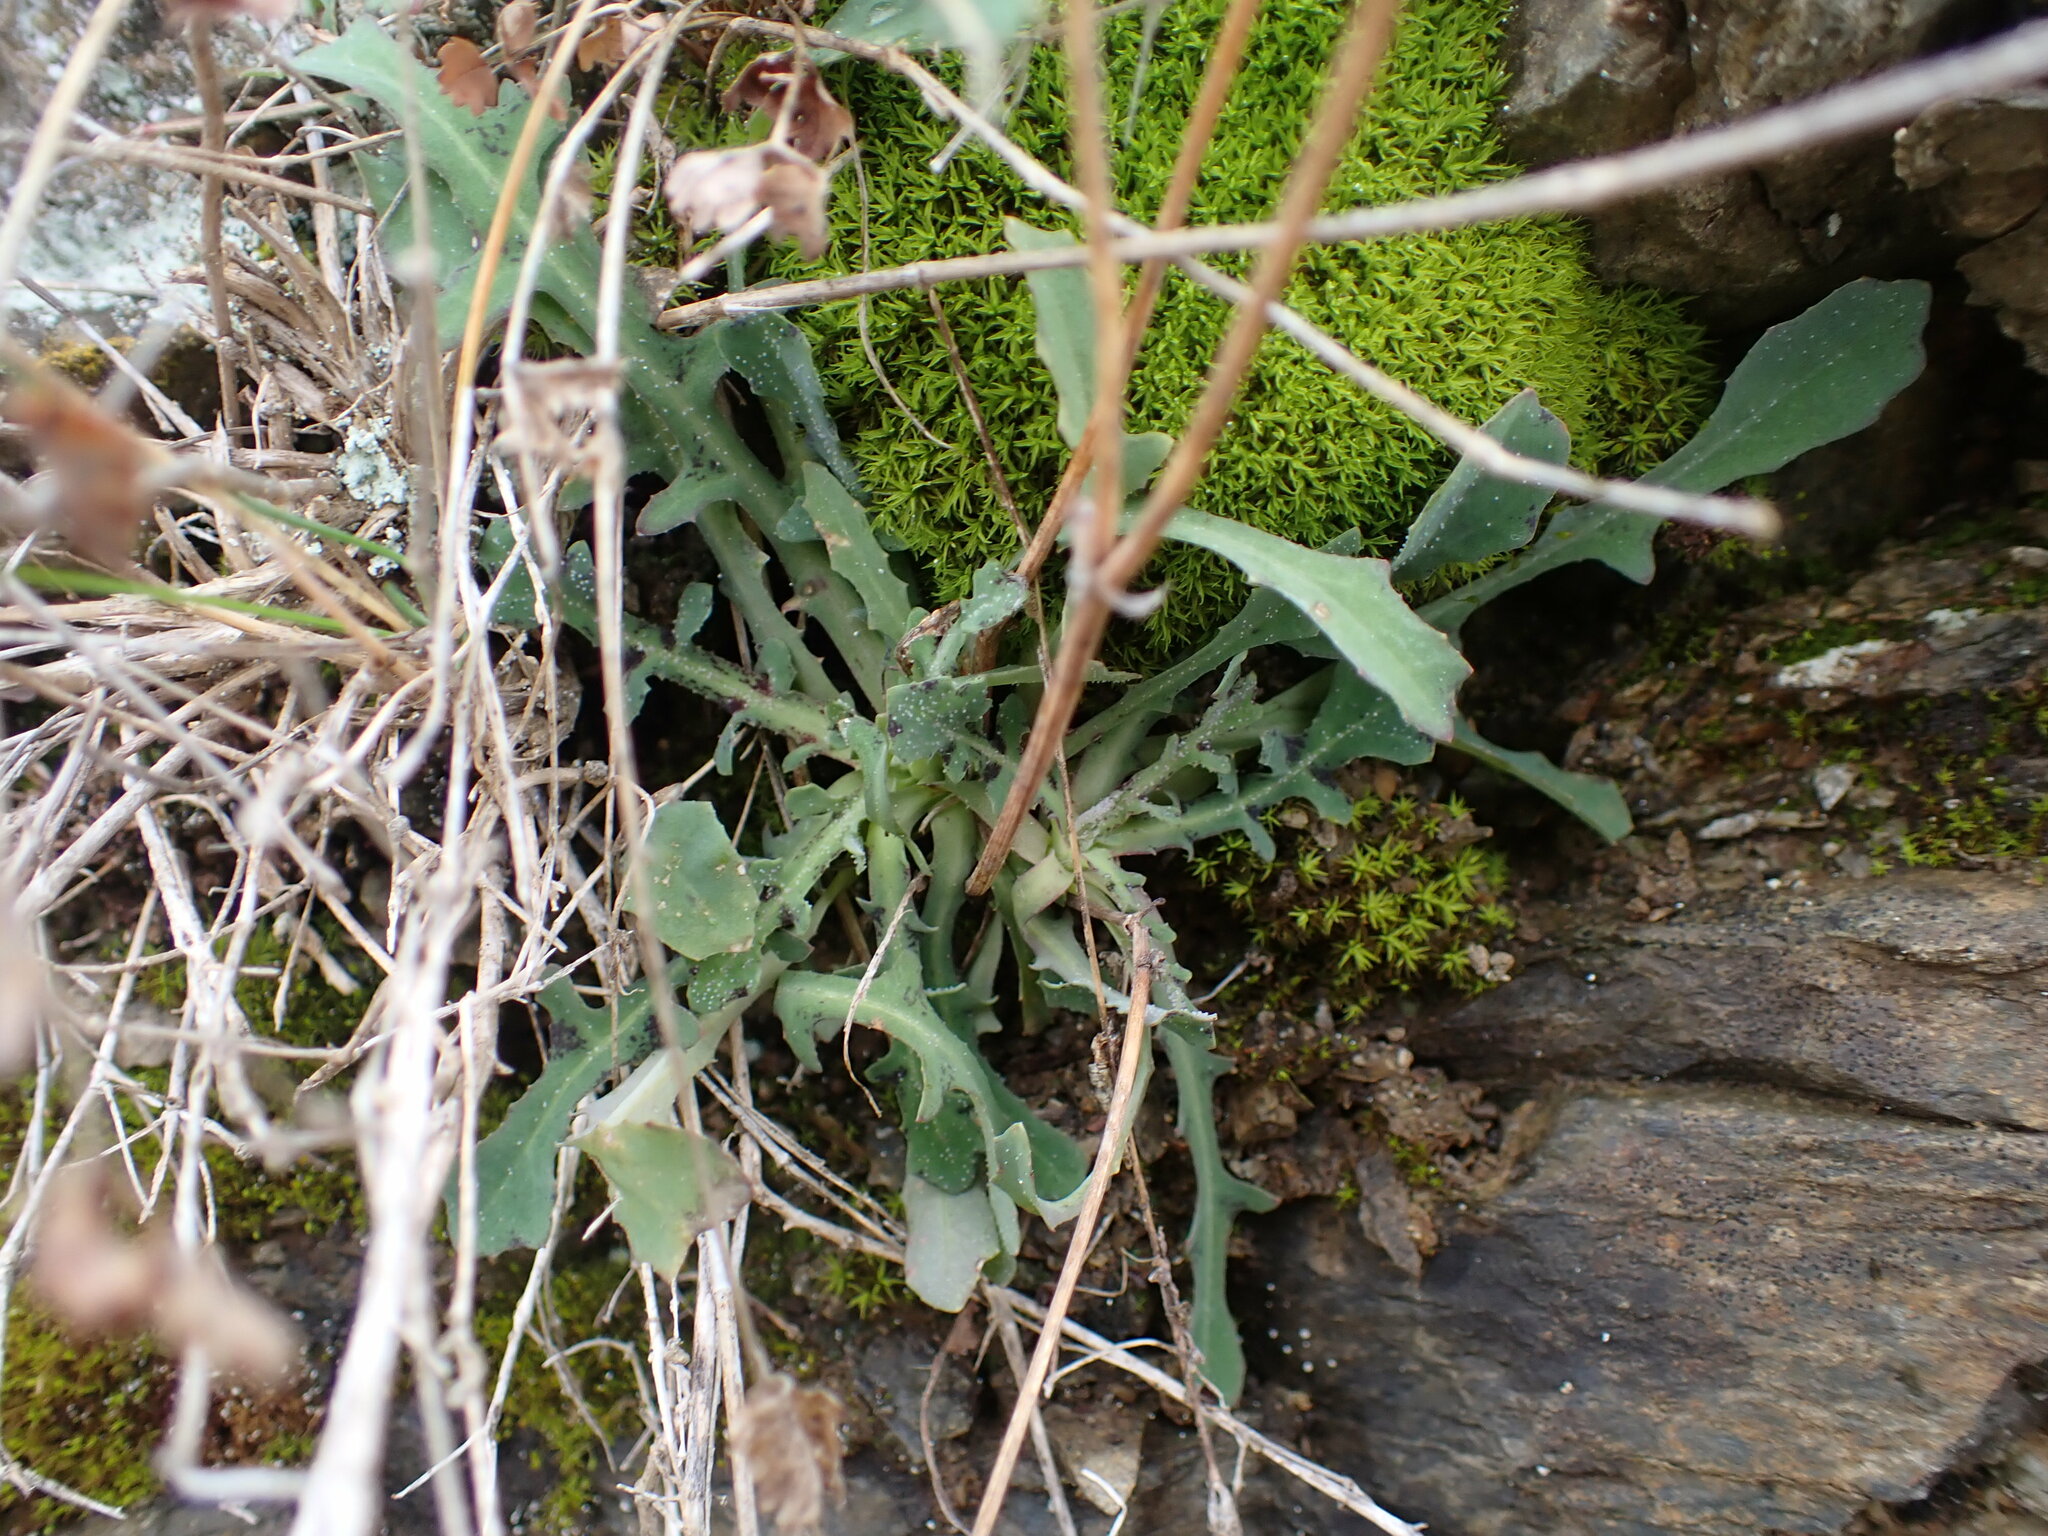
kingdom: Plantae
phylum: Tracheophyta
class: Magnoliopsida
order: Asterales
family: Asteraceae
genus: Reichardia
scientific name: Reichardia picroides
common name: Common brighteyes
